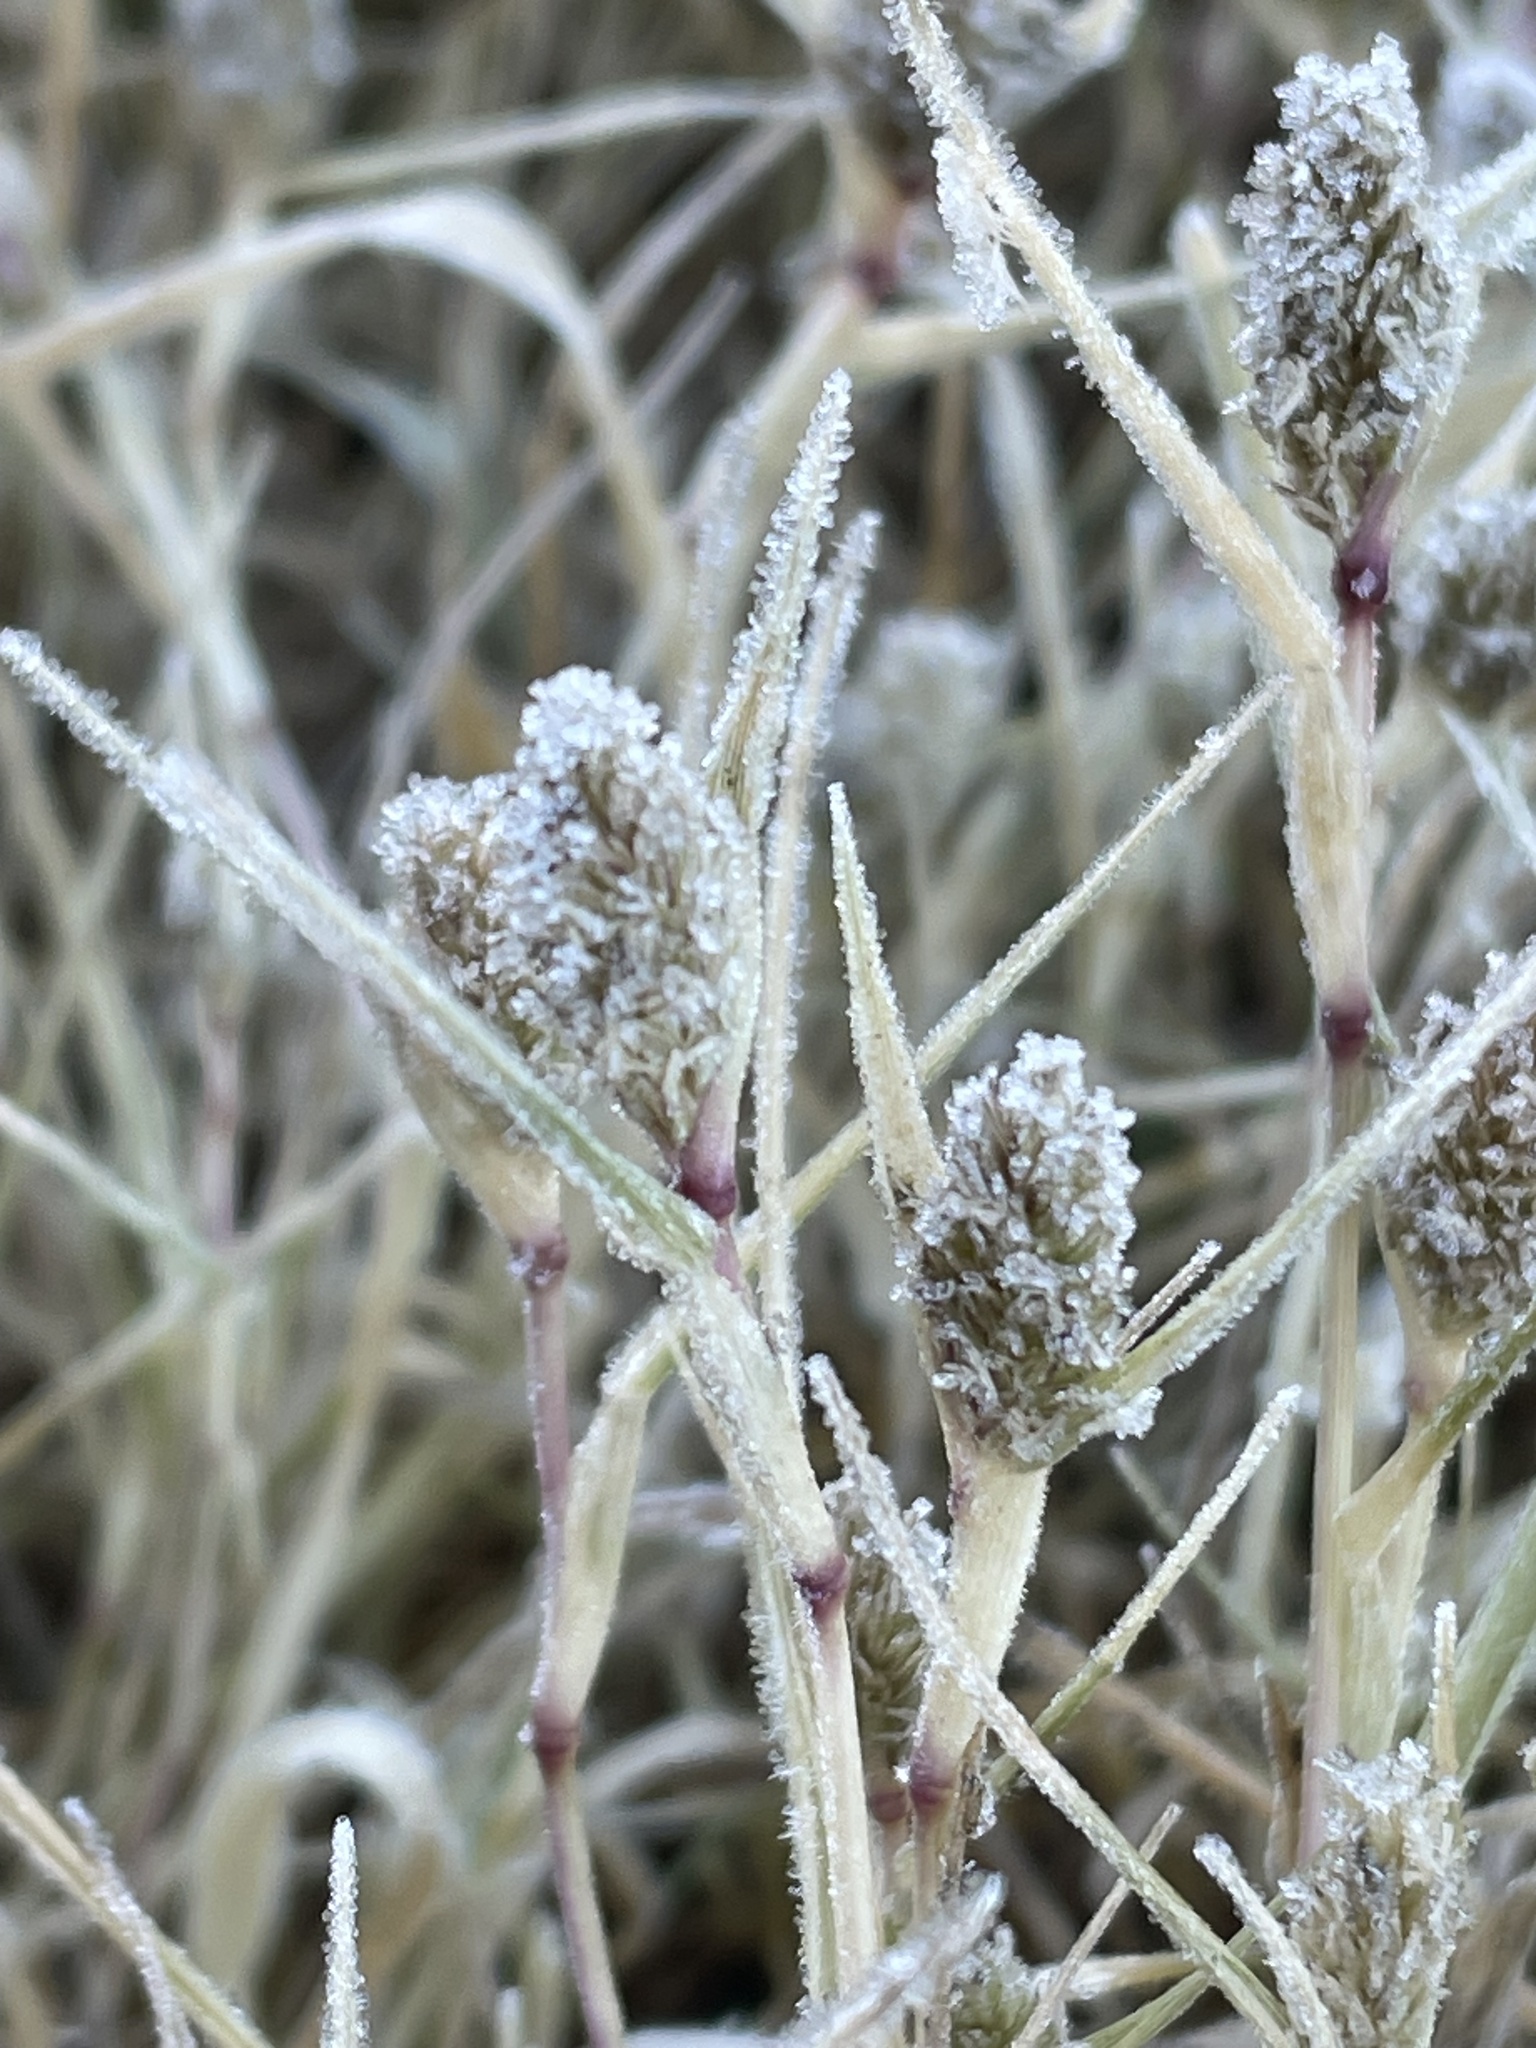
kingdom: Plantae
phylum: Tracheophyta
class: Liliopsida
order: Poales
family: Poaceae
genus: Sporobolus
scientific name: Sporobolus schoenoides
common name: Rush-like timothy
